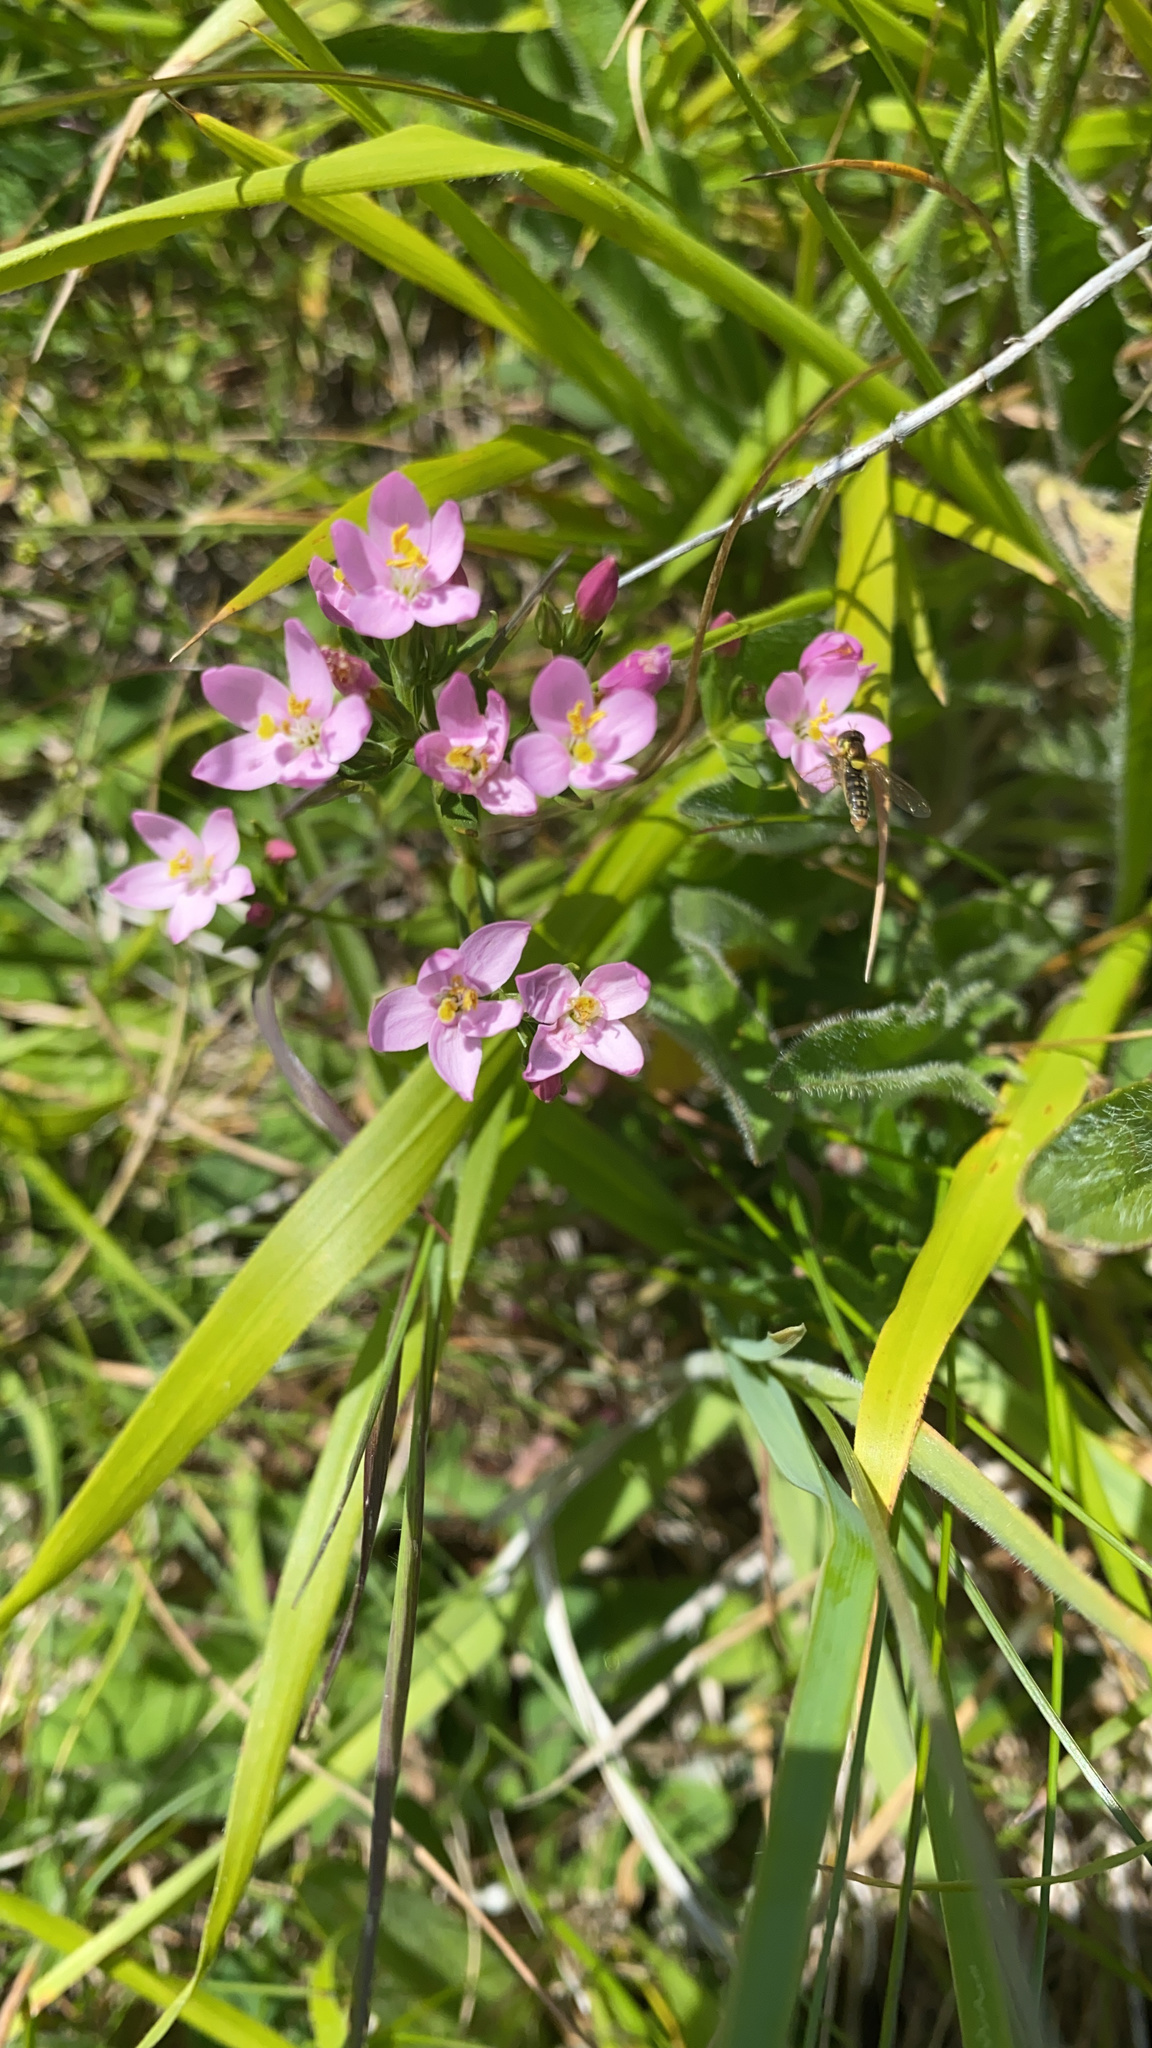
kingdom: Plantae
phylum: Tracheophyta
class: Magnoliopsida
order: Gentianales
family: Gentianaceae
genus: Centaurium
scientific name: Centaurium erythraea
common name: Common centaury
